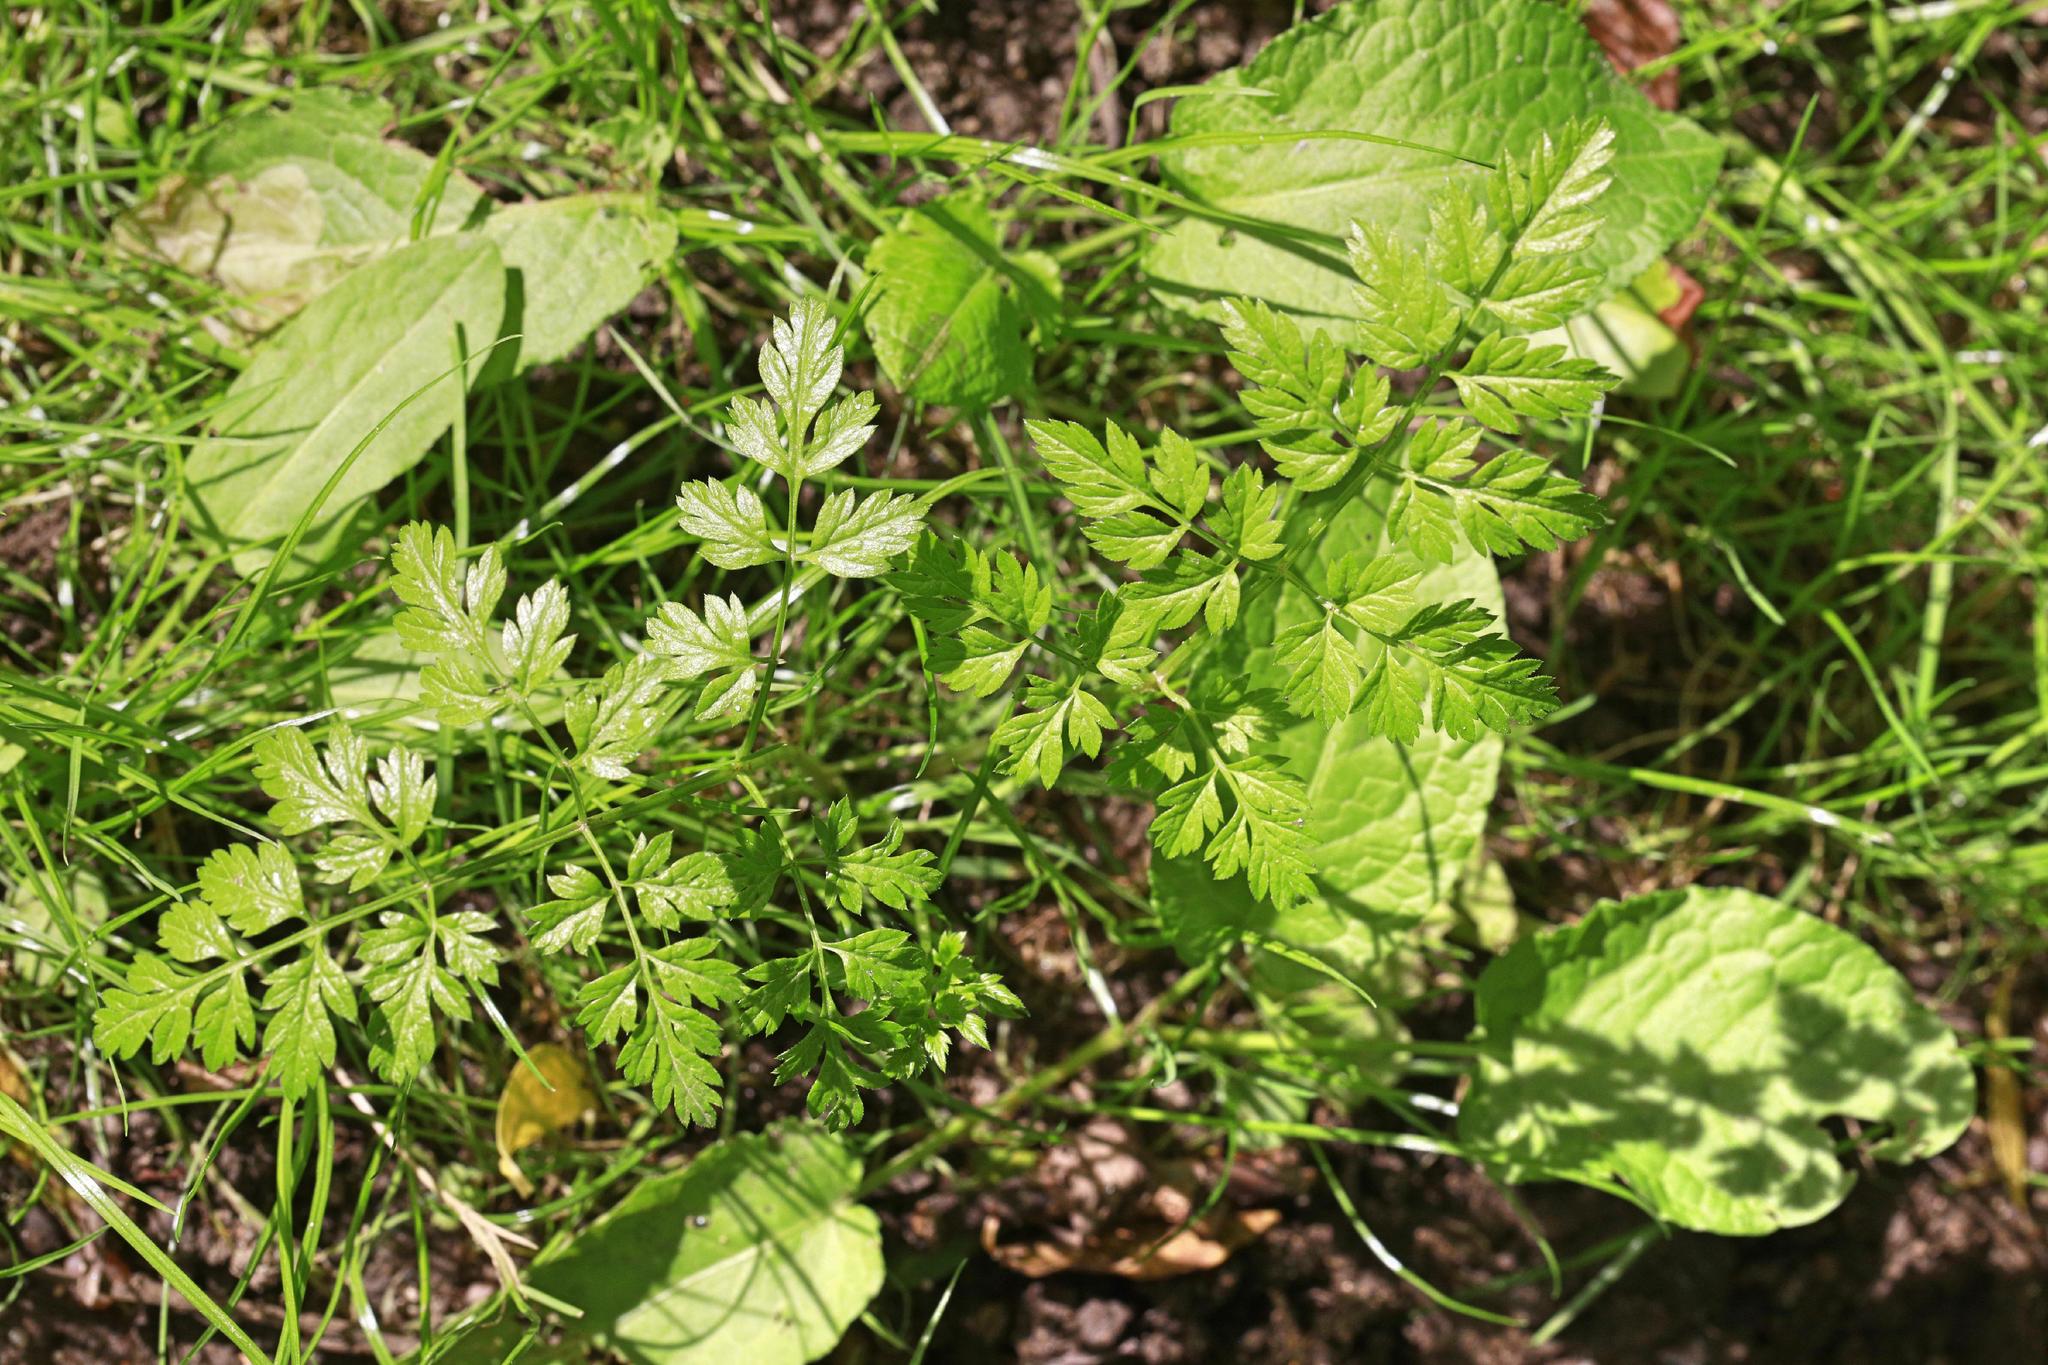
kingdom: Plantae
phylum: Tracheophyta
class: Magnoliopsida
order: Apiales
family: Apiaceae
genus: Anthriscus
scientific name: Anthriscus sylvestris
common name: Cow parsley
